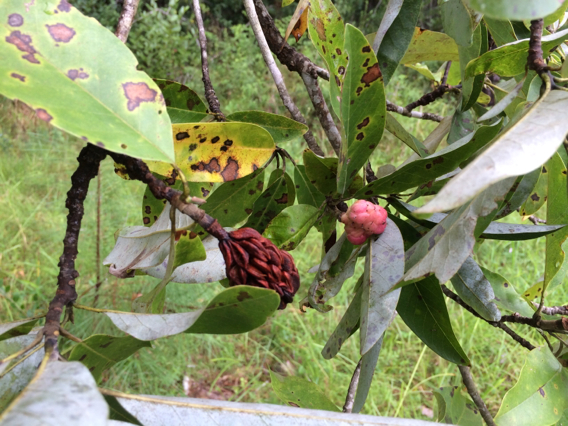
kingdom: Plantae
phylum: Tracheophyta
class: Magnoliopsida
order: Magnoliales
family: Magnoliaceae
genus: Magnolia
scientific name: Magnolia virginiana
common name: Swamp bay
